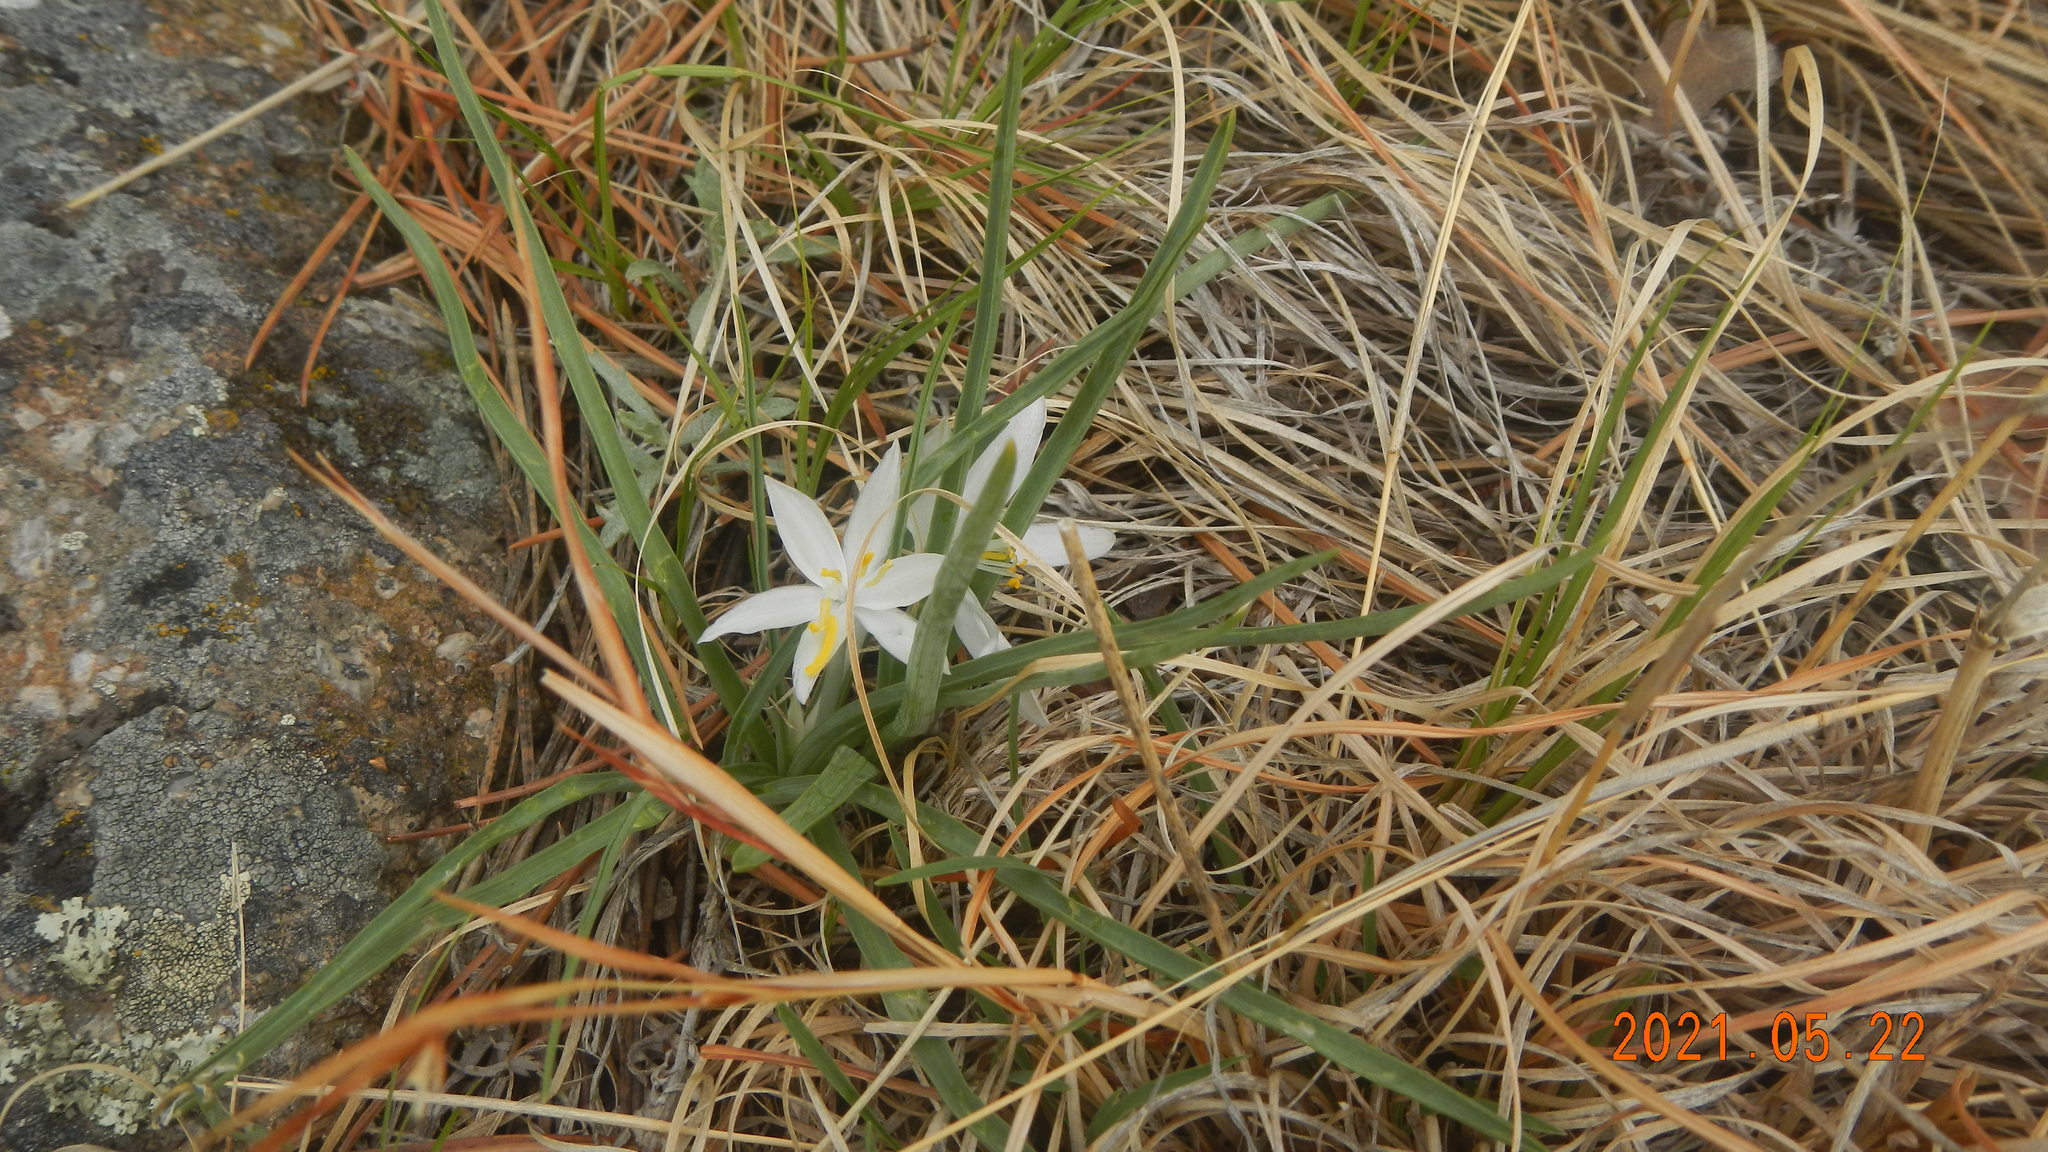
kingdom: Plantae
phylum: Tracheophyta
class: Liliopsida
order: Asparagales
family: Asparagaceae
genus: Leucocrinum
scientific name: Leucocrinum montanum
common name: Mountain-lily
